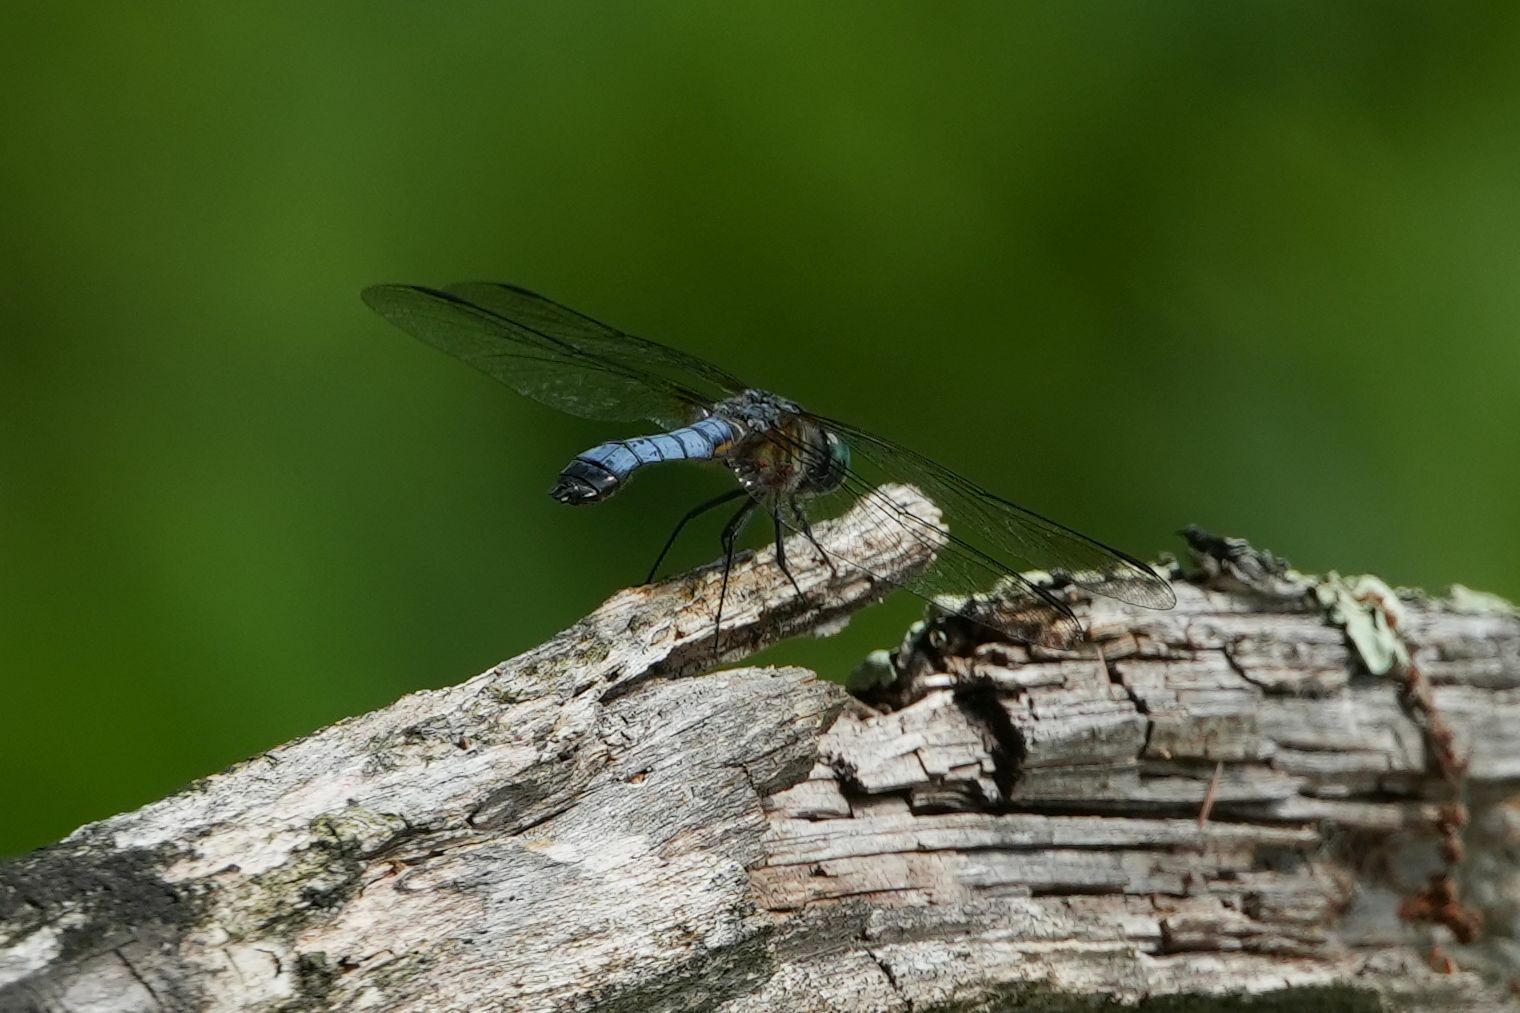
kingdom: Animalia
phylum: Arthropoda
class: Insecta
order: Odonata
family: Libellulidae
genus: Pachydiplax
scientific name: Pachydiplax longipennis
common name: Blue dasher
